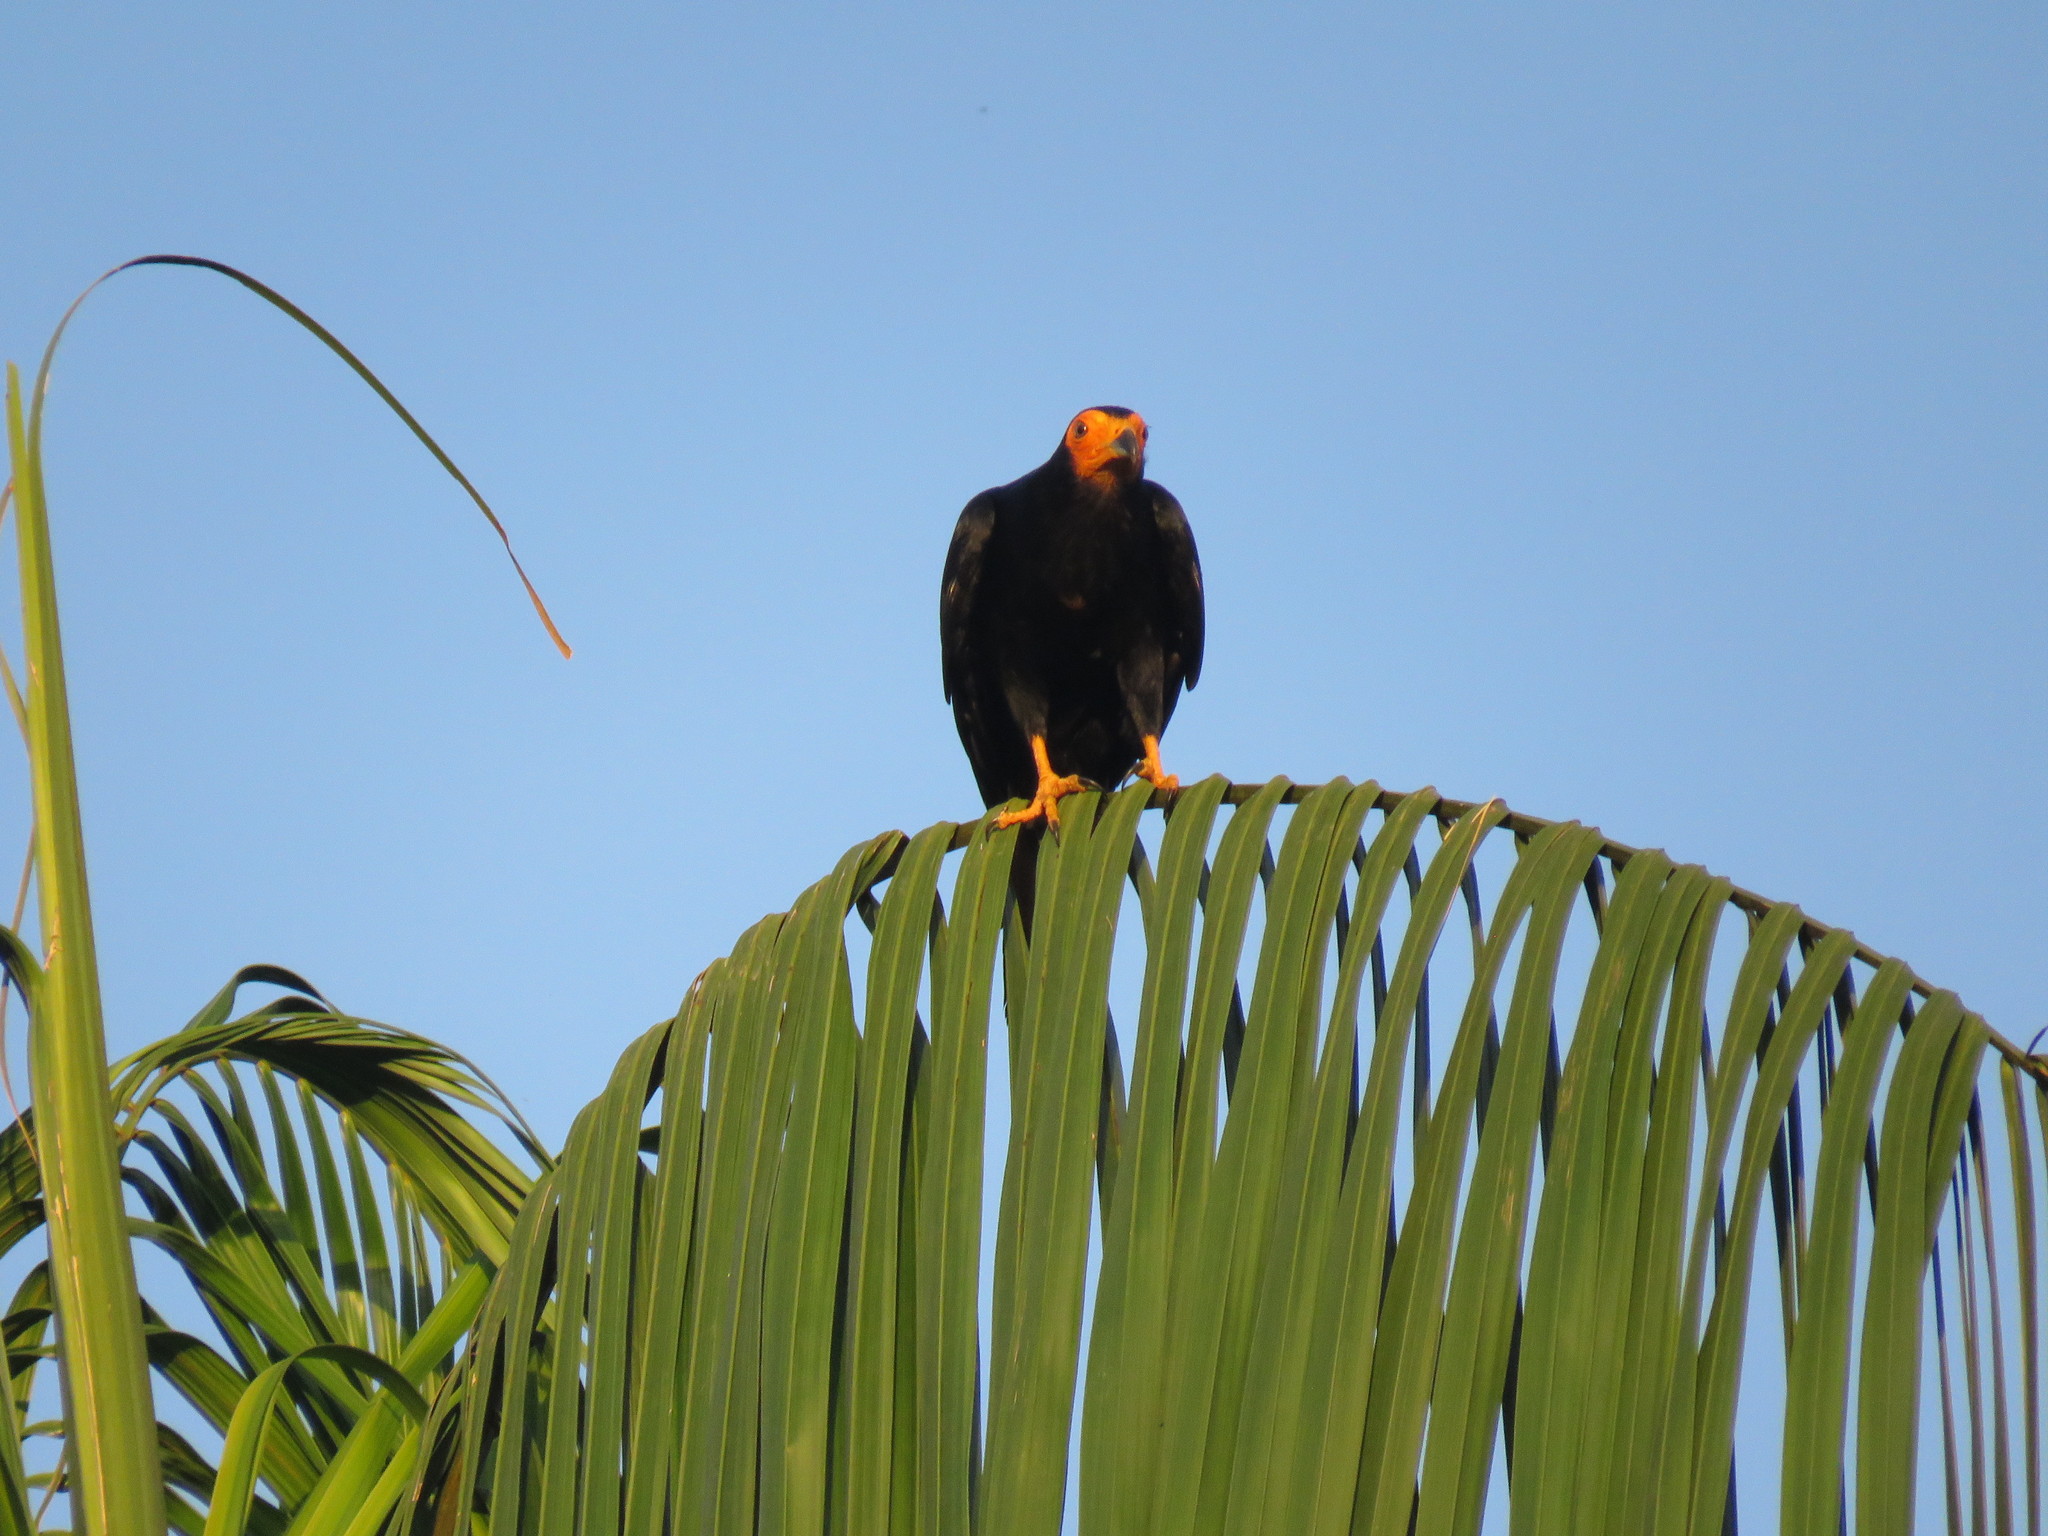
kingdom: Animalia
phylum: Chordata
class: Aves
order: Falconiformes
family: Falconidae
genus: Daptrius
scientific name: Daptrius ater
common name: Black caracara
